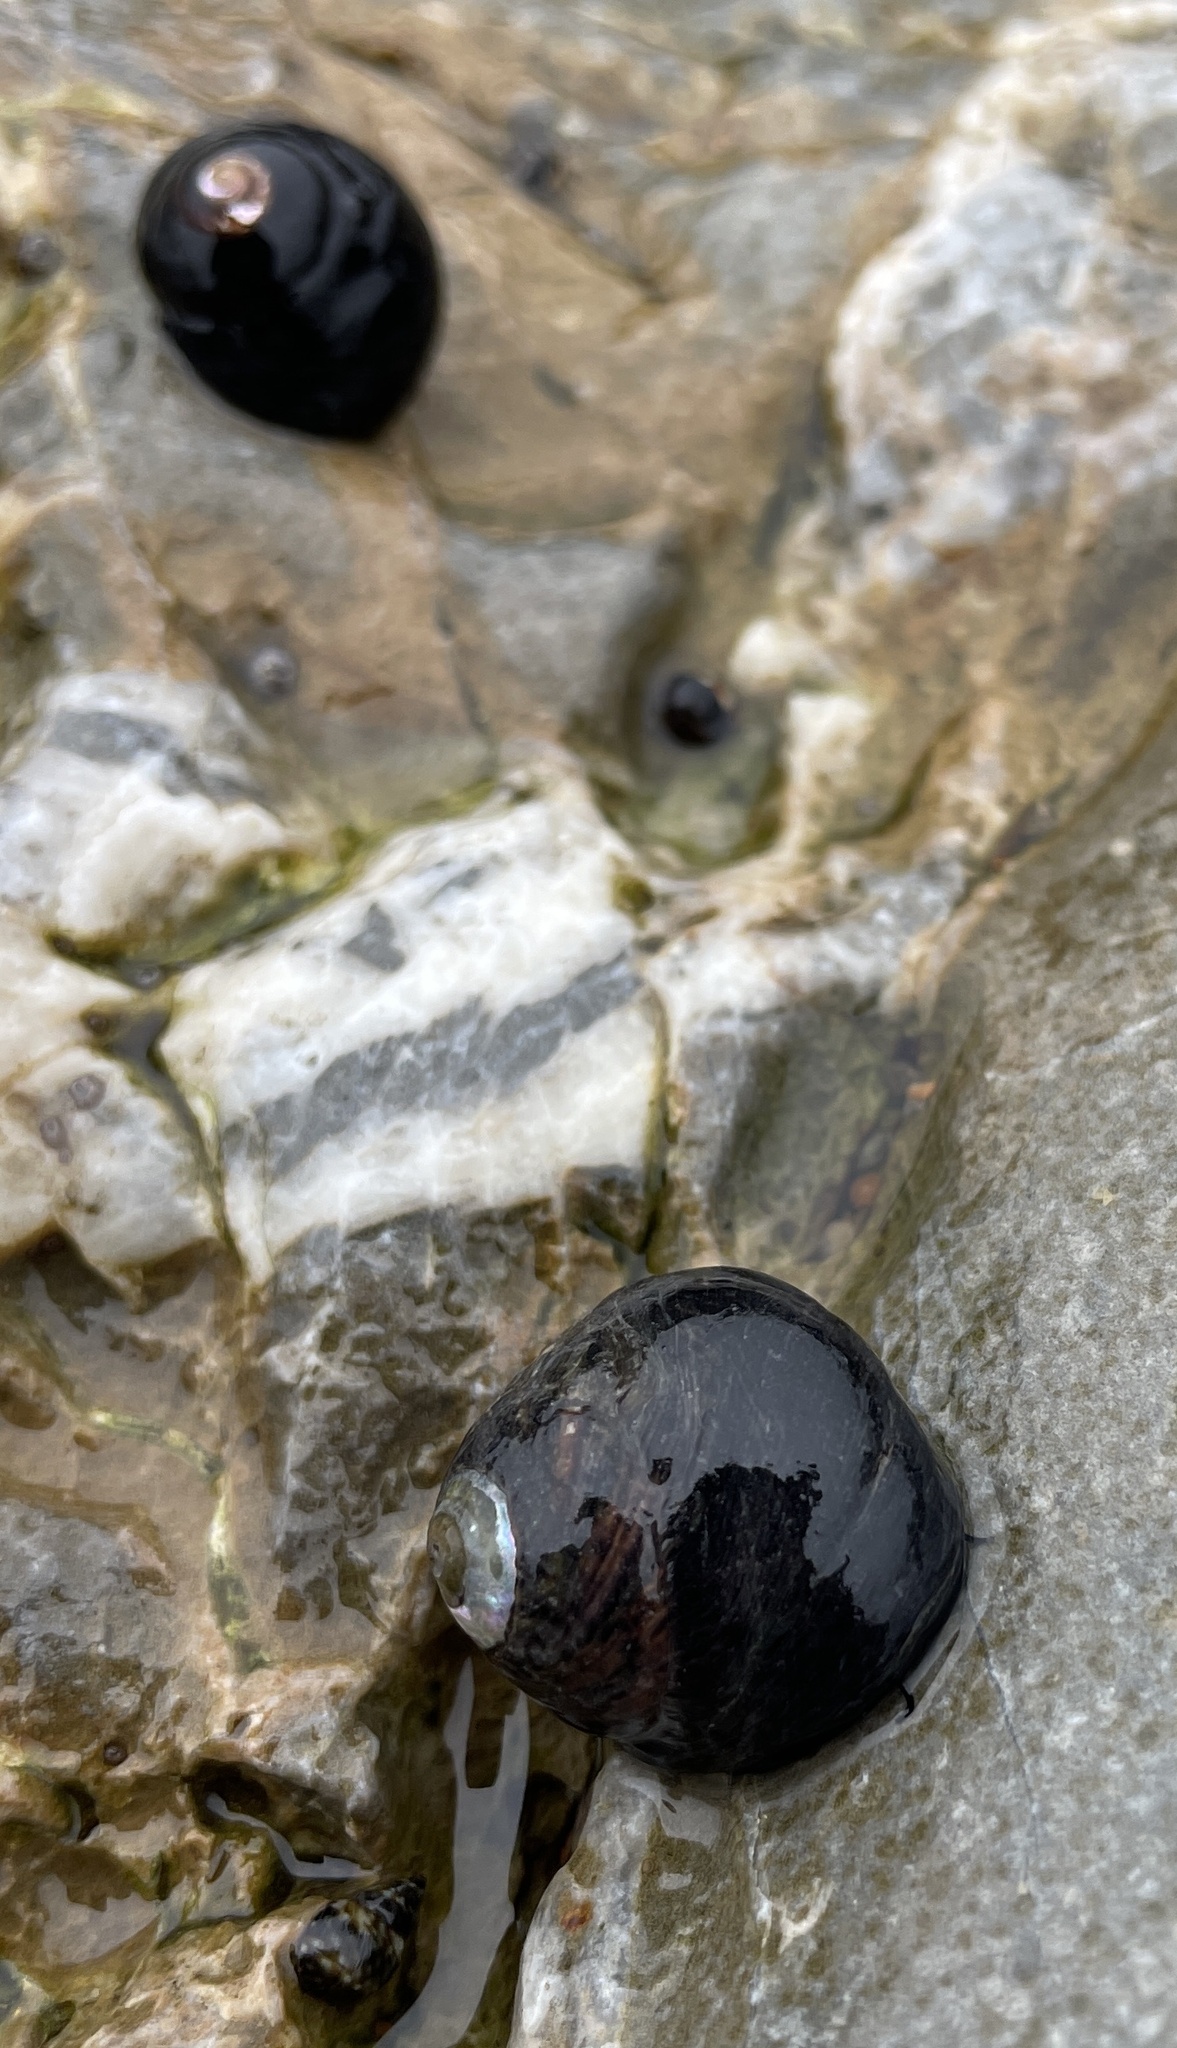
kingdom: Animalia
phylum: Mollusca
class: Gastropoda
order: Trochida
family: Tegulidae
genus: Tegula
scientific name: Tegula funebralis
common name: Black tegula
